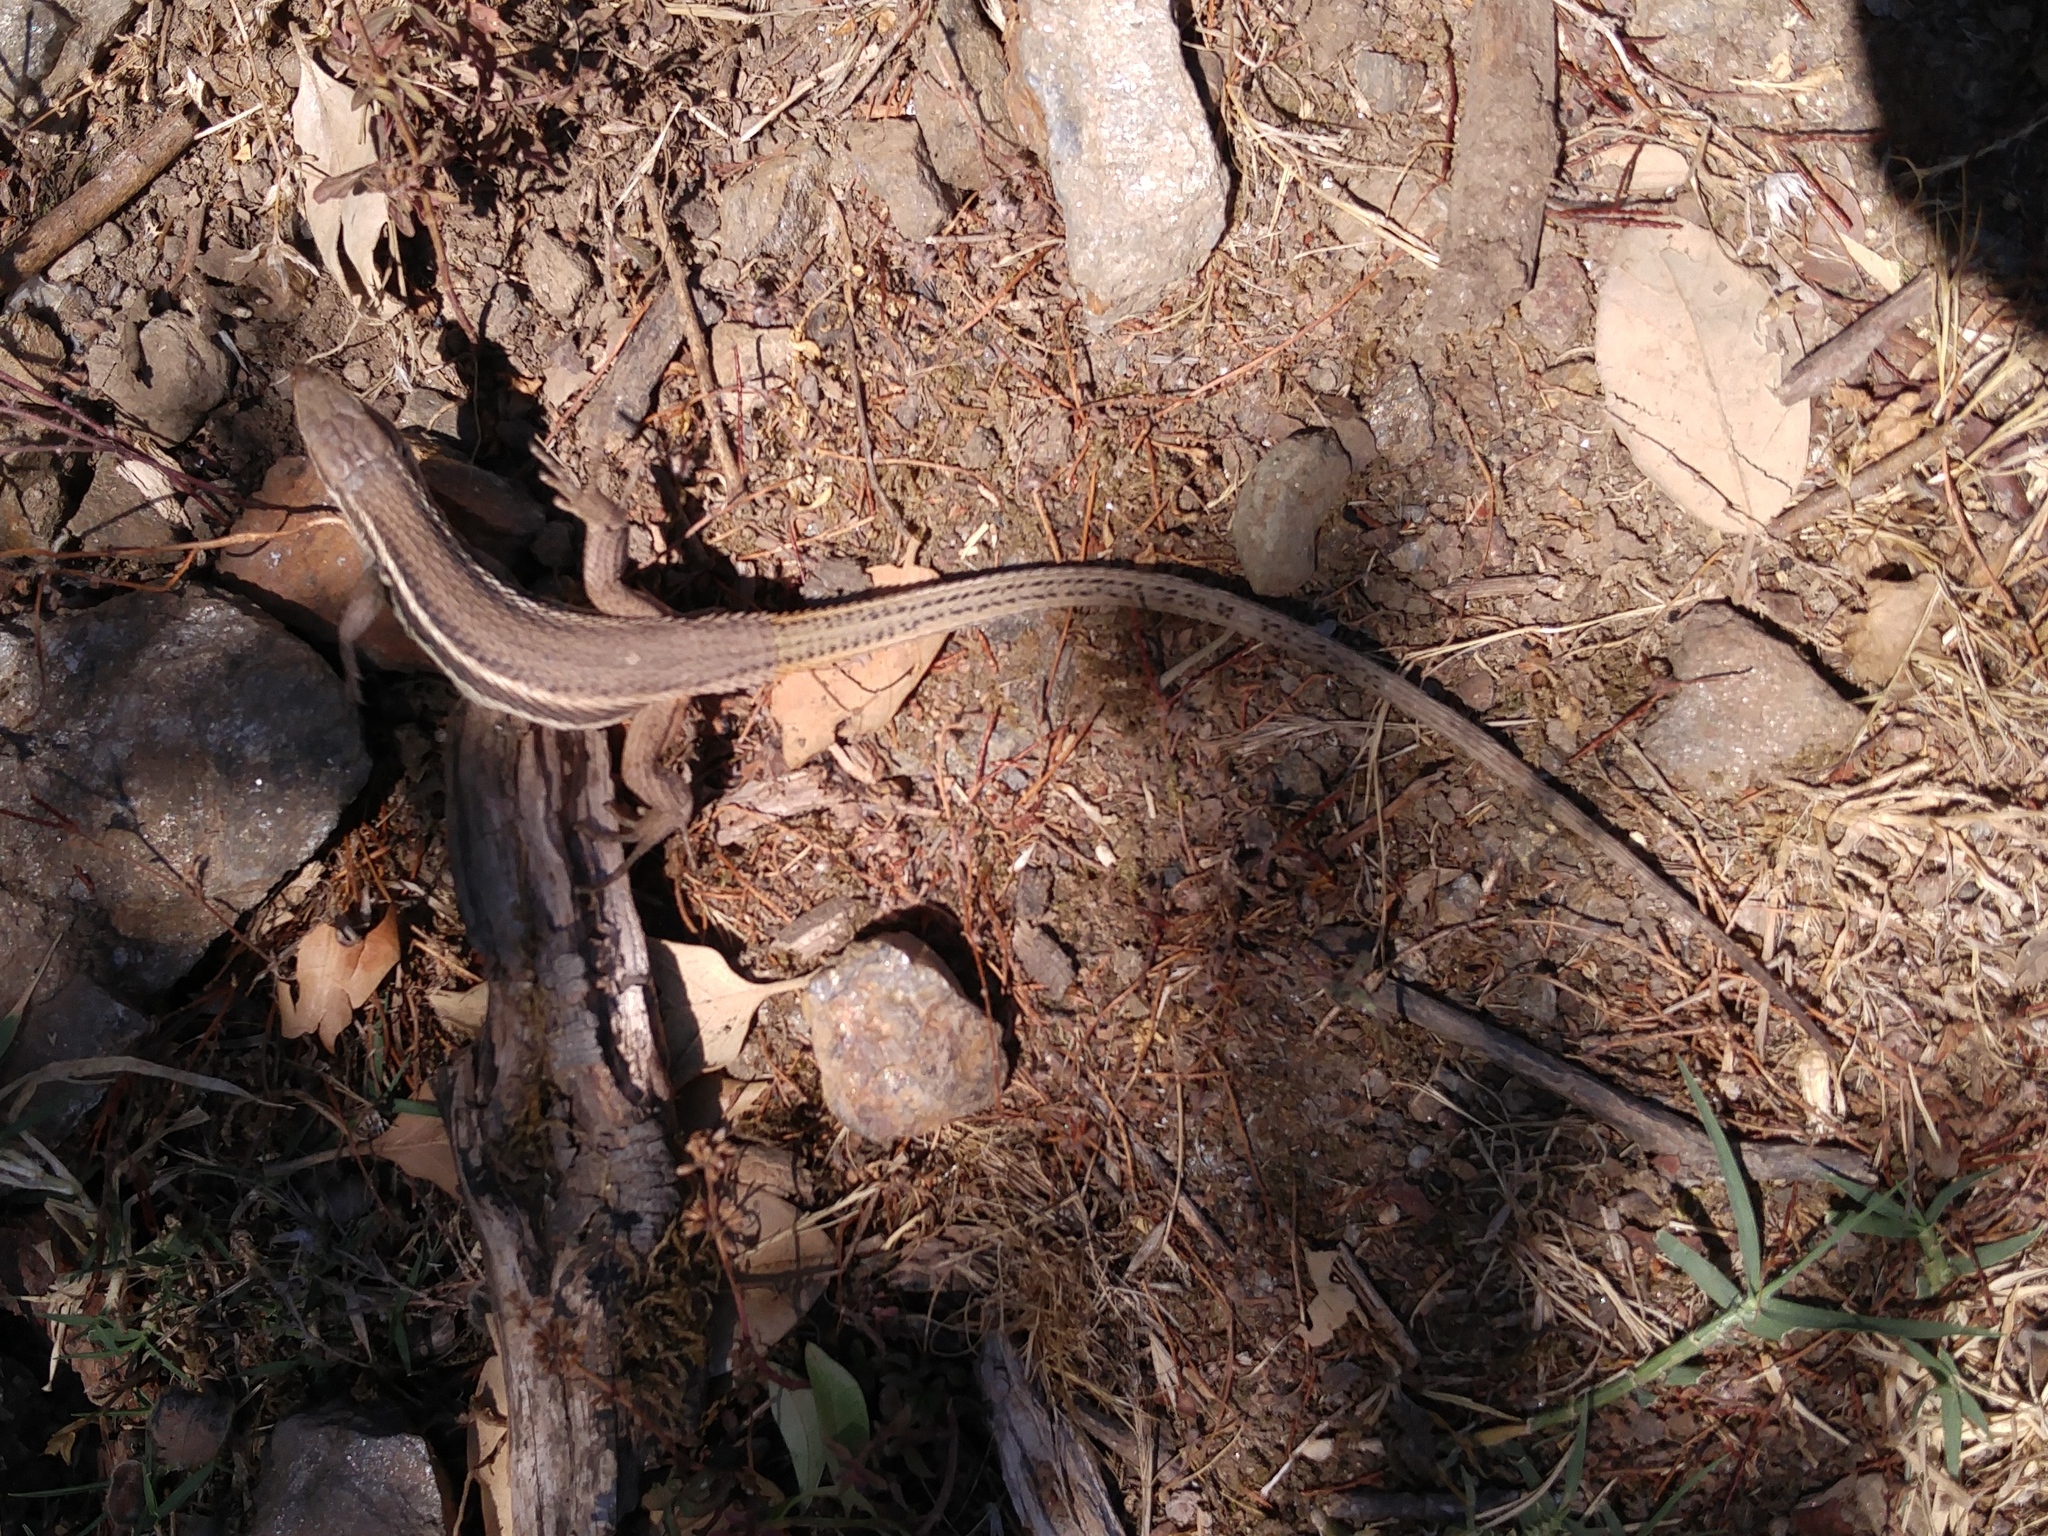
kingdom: Animalia
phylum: Chordata
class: Squamata
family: Lacertidae
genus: Psammodromus
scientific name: Psammodromus algirus
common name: Algerian psammodromus
